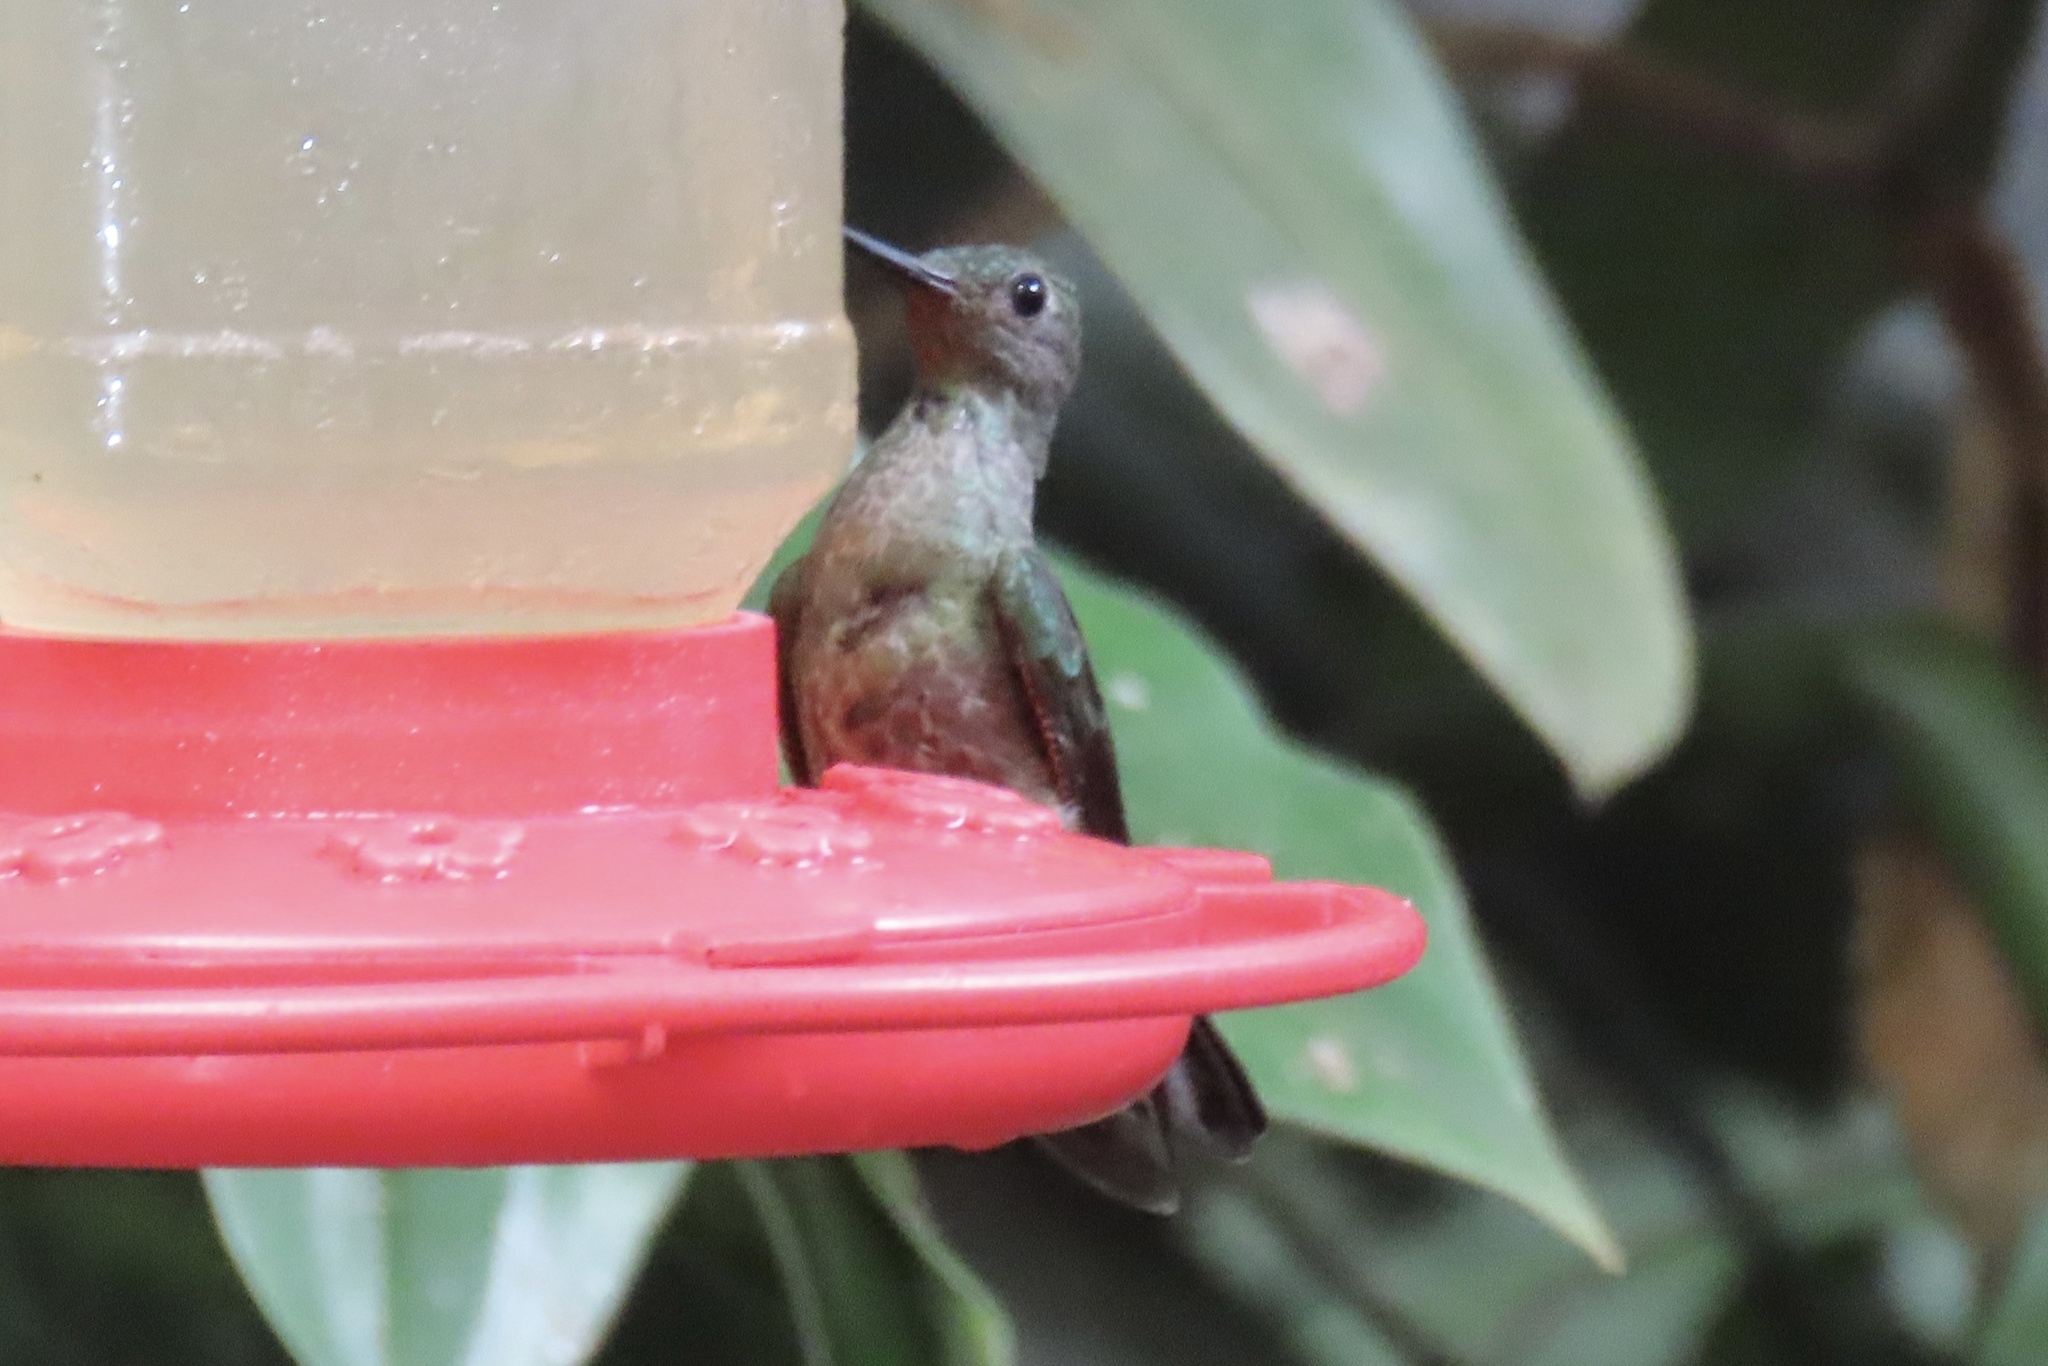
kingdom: Animalia
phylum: Chordata
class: Aves
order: Apodiformes
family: Trochilidae
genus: Phaeochroa
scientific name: Phaeochroa cuvierii
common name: Scaly-breasted hummingbird
